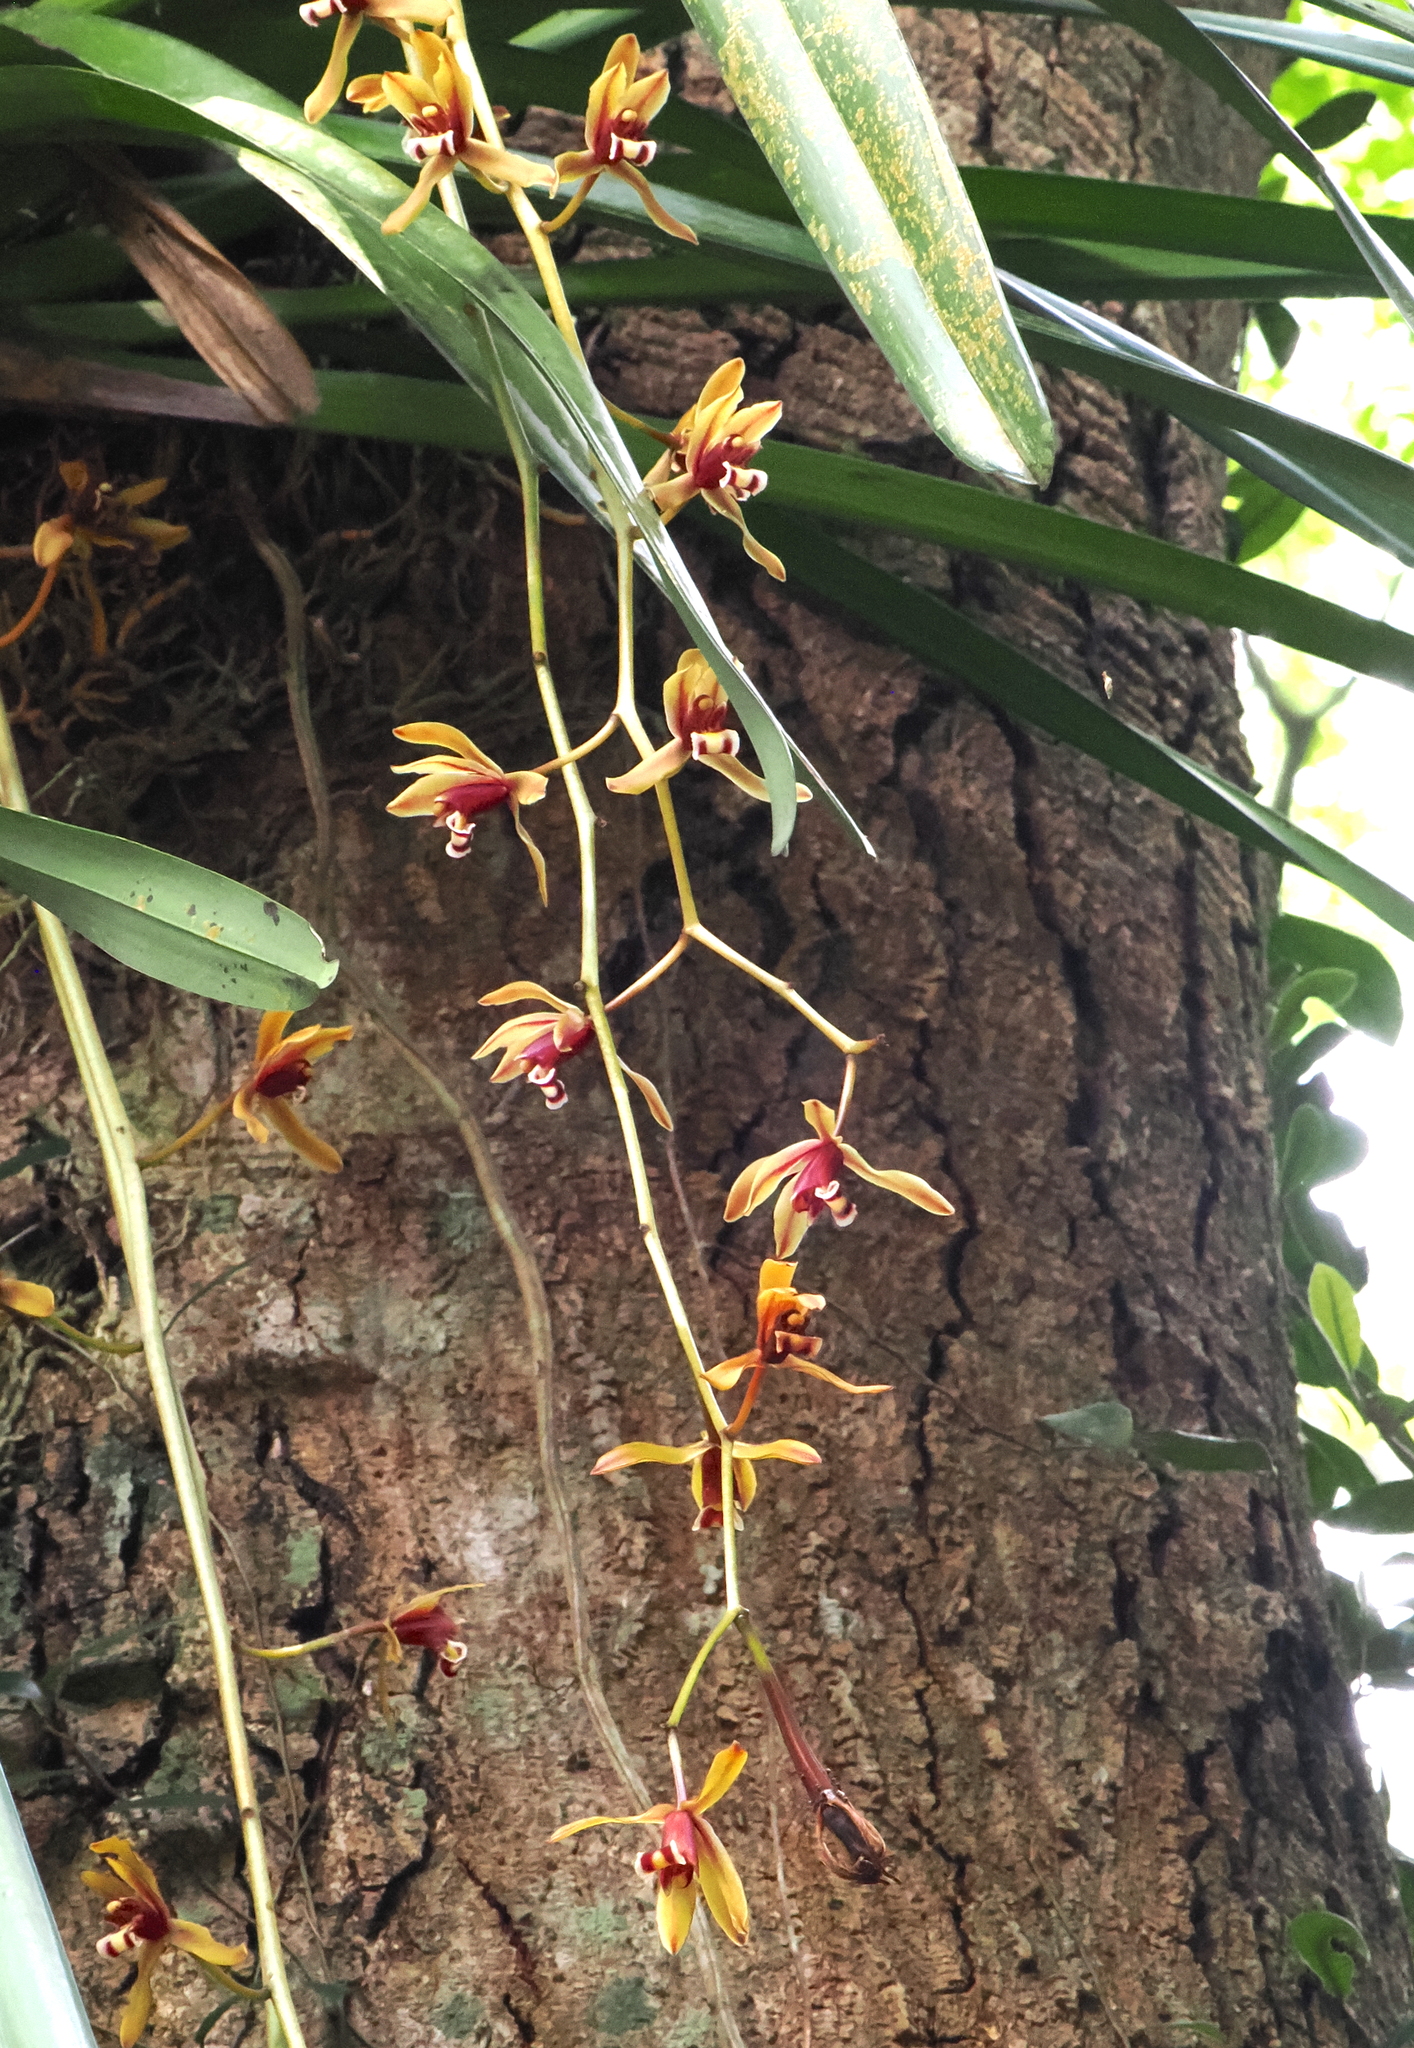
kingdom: Plantae
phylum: Tracheophyta
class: Liliopsida
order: Asparagales
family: Orchidaceae
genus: Cymbidium
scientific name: Cymbidium finlaysonianum
